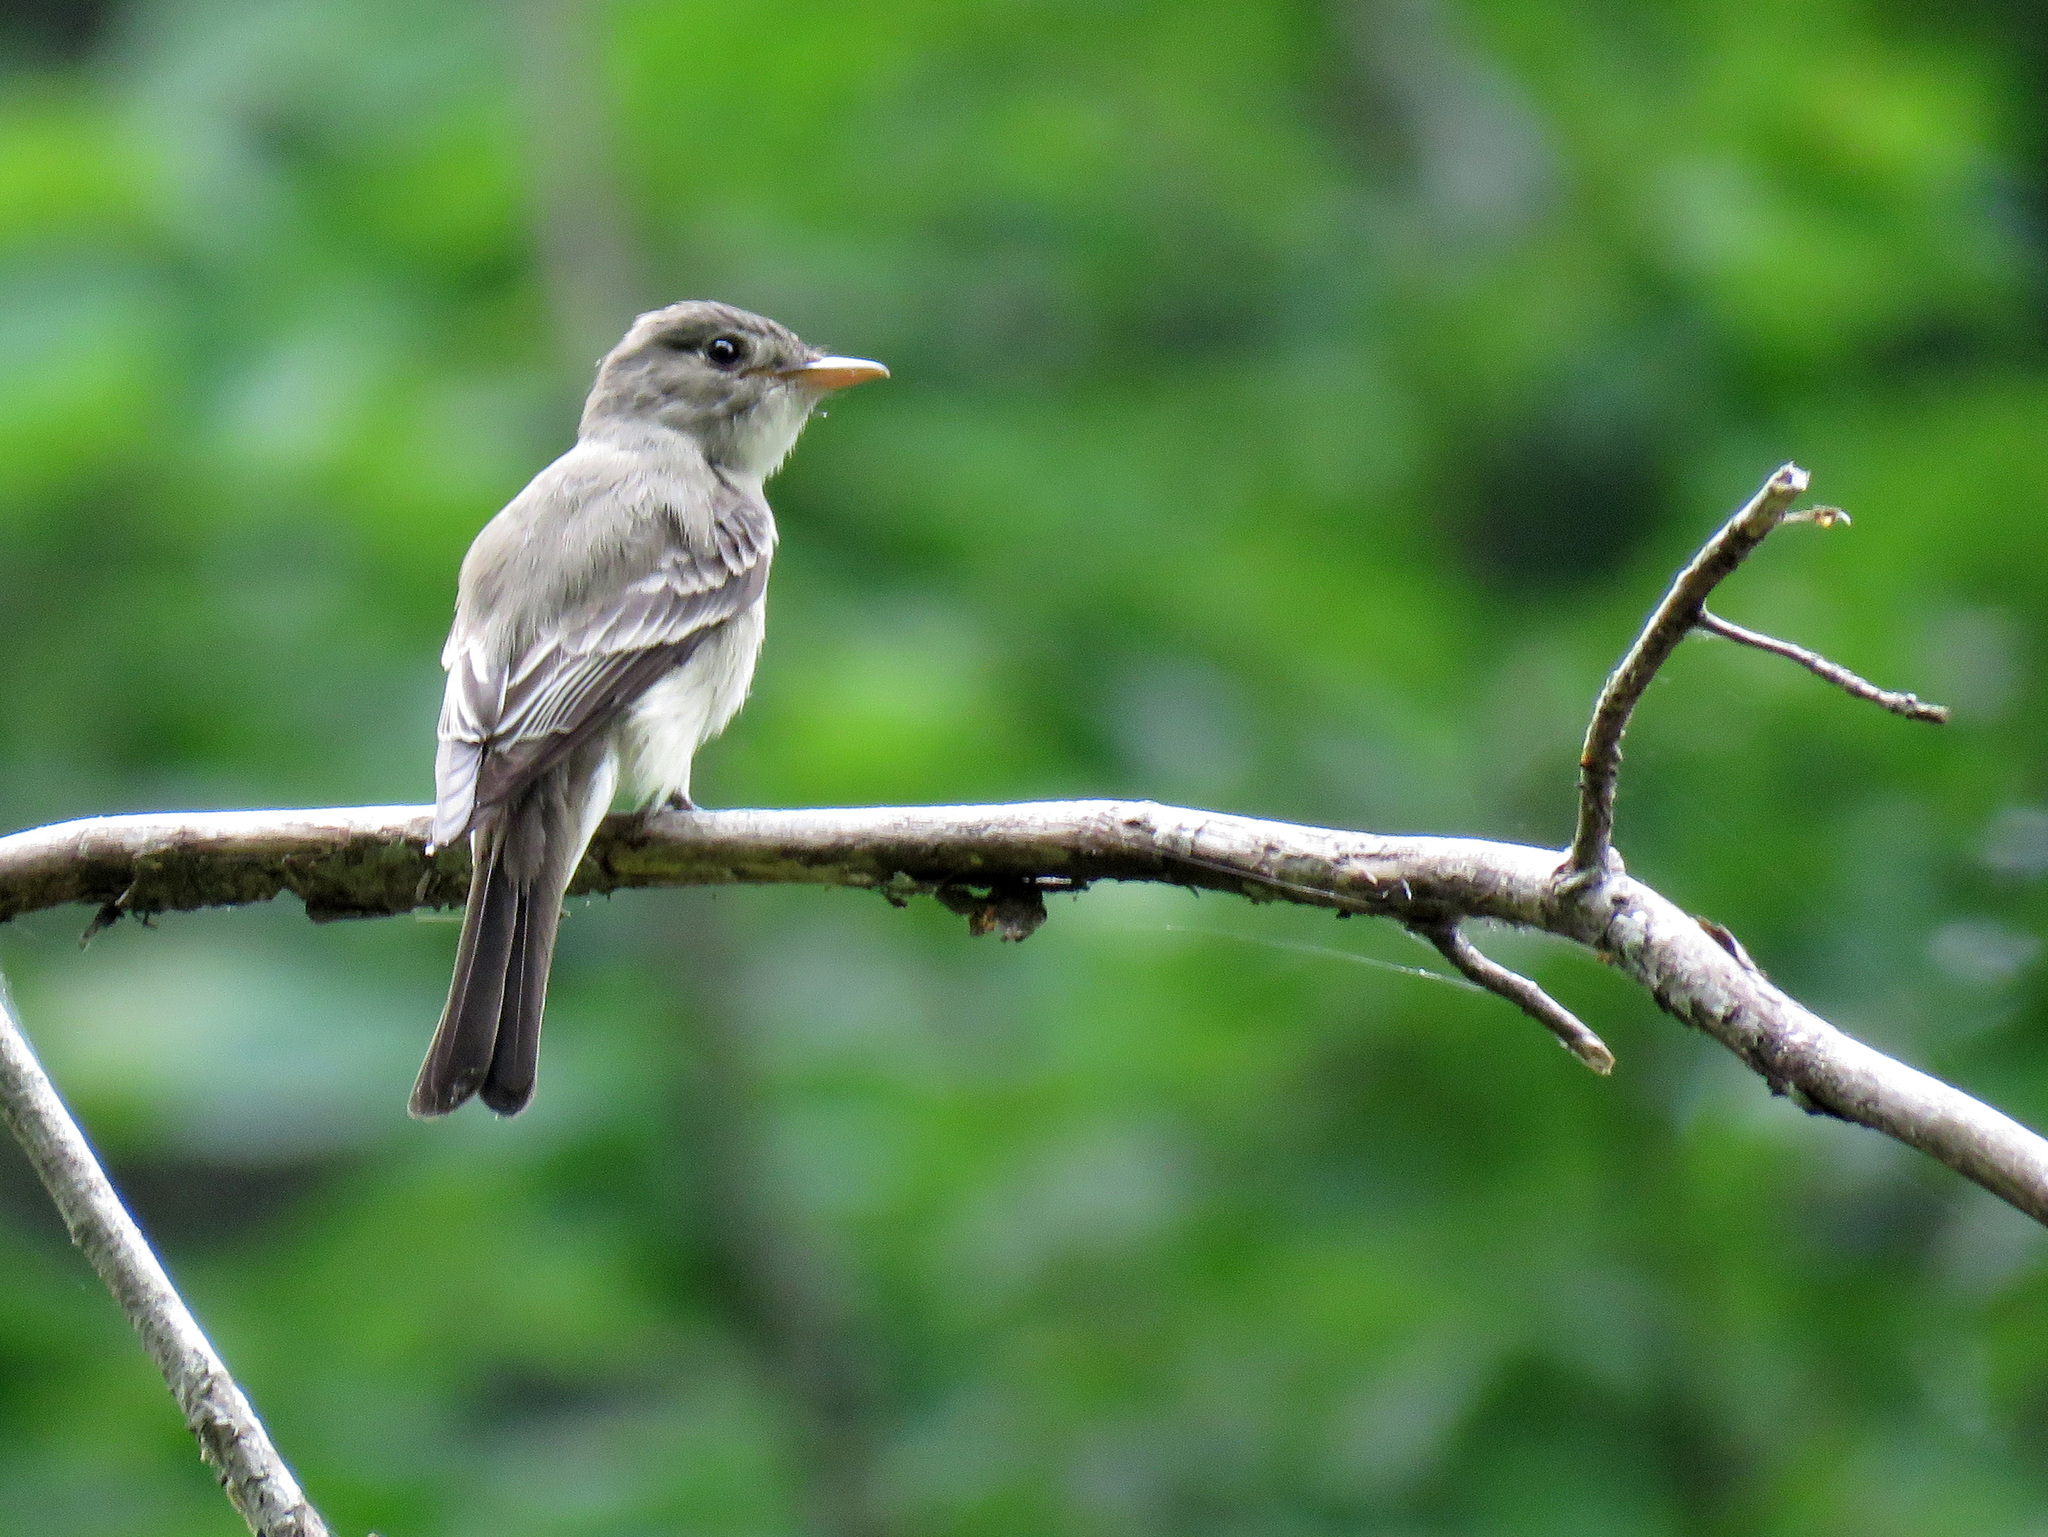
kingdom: Animalia
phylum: Chordata
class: Aves
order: Passeriformes
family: Tyrannidae
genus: Contopus
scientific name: Contopus virens
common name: Eastern wood-pewee
